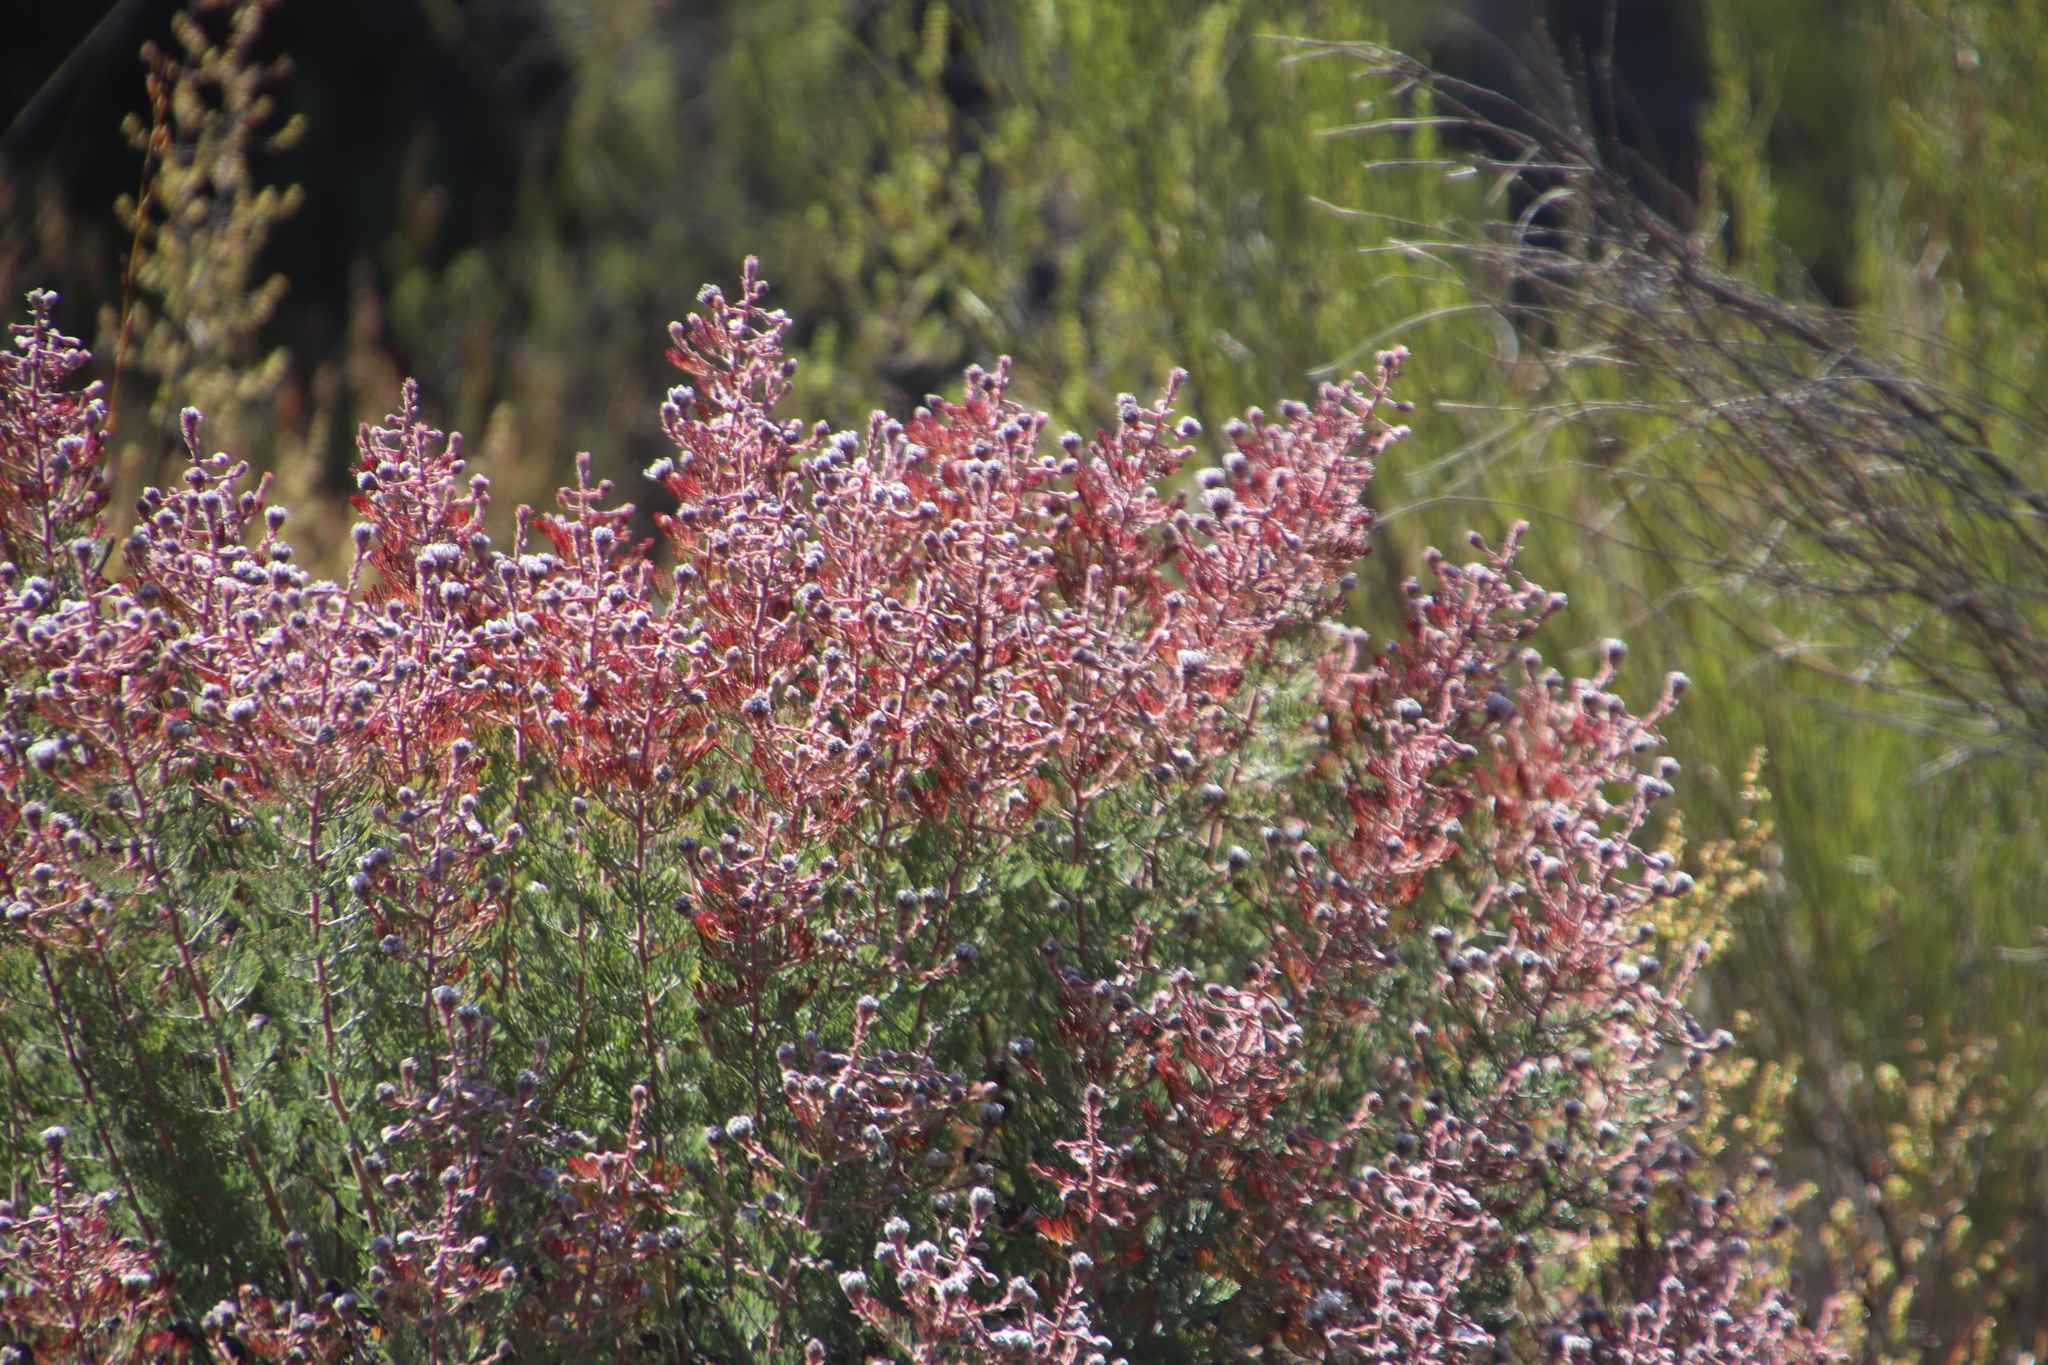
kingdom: Plantae
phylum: Tracheophyta
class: Magnoliopsida
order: Proteales
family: Proteaceae
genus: Serruria
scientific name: Serruria aitonii
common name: Marshmallow spiderhead
